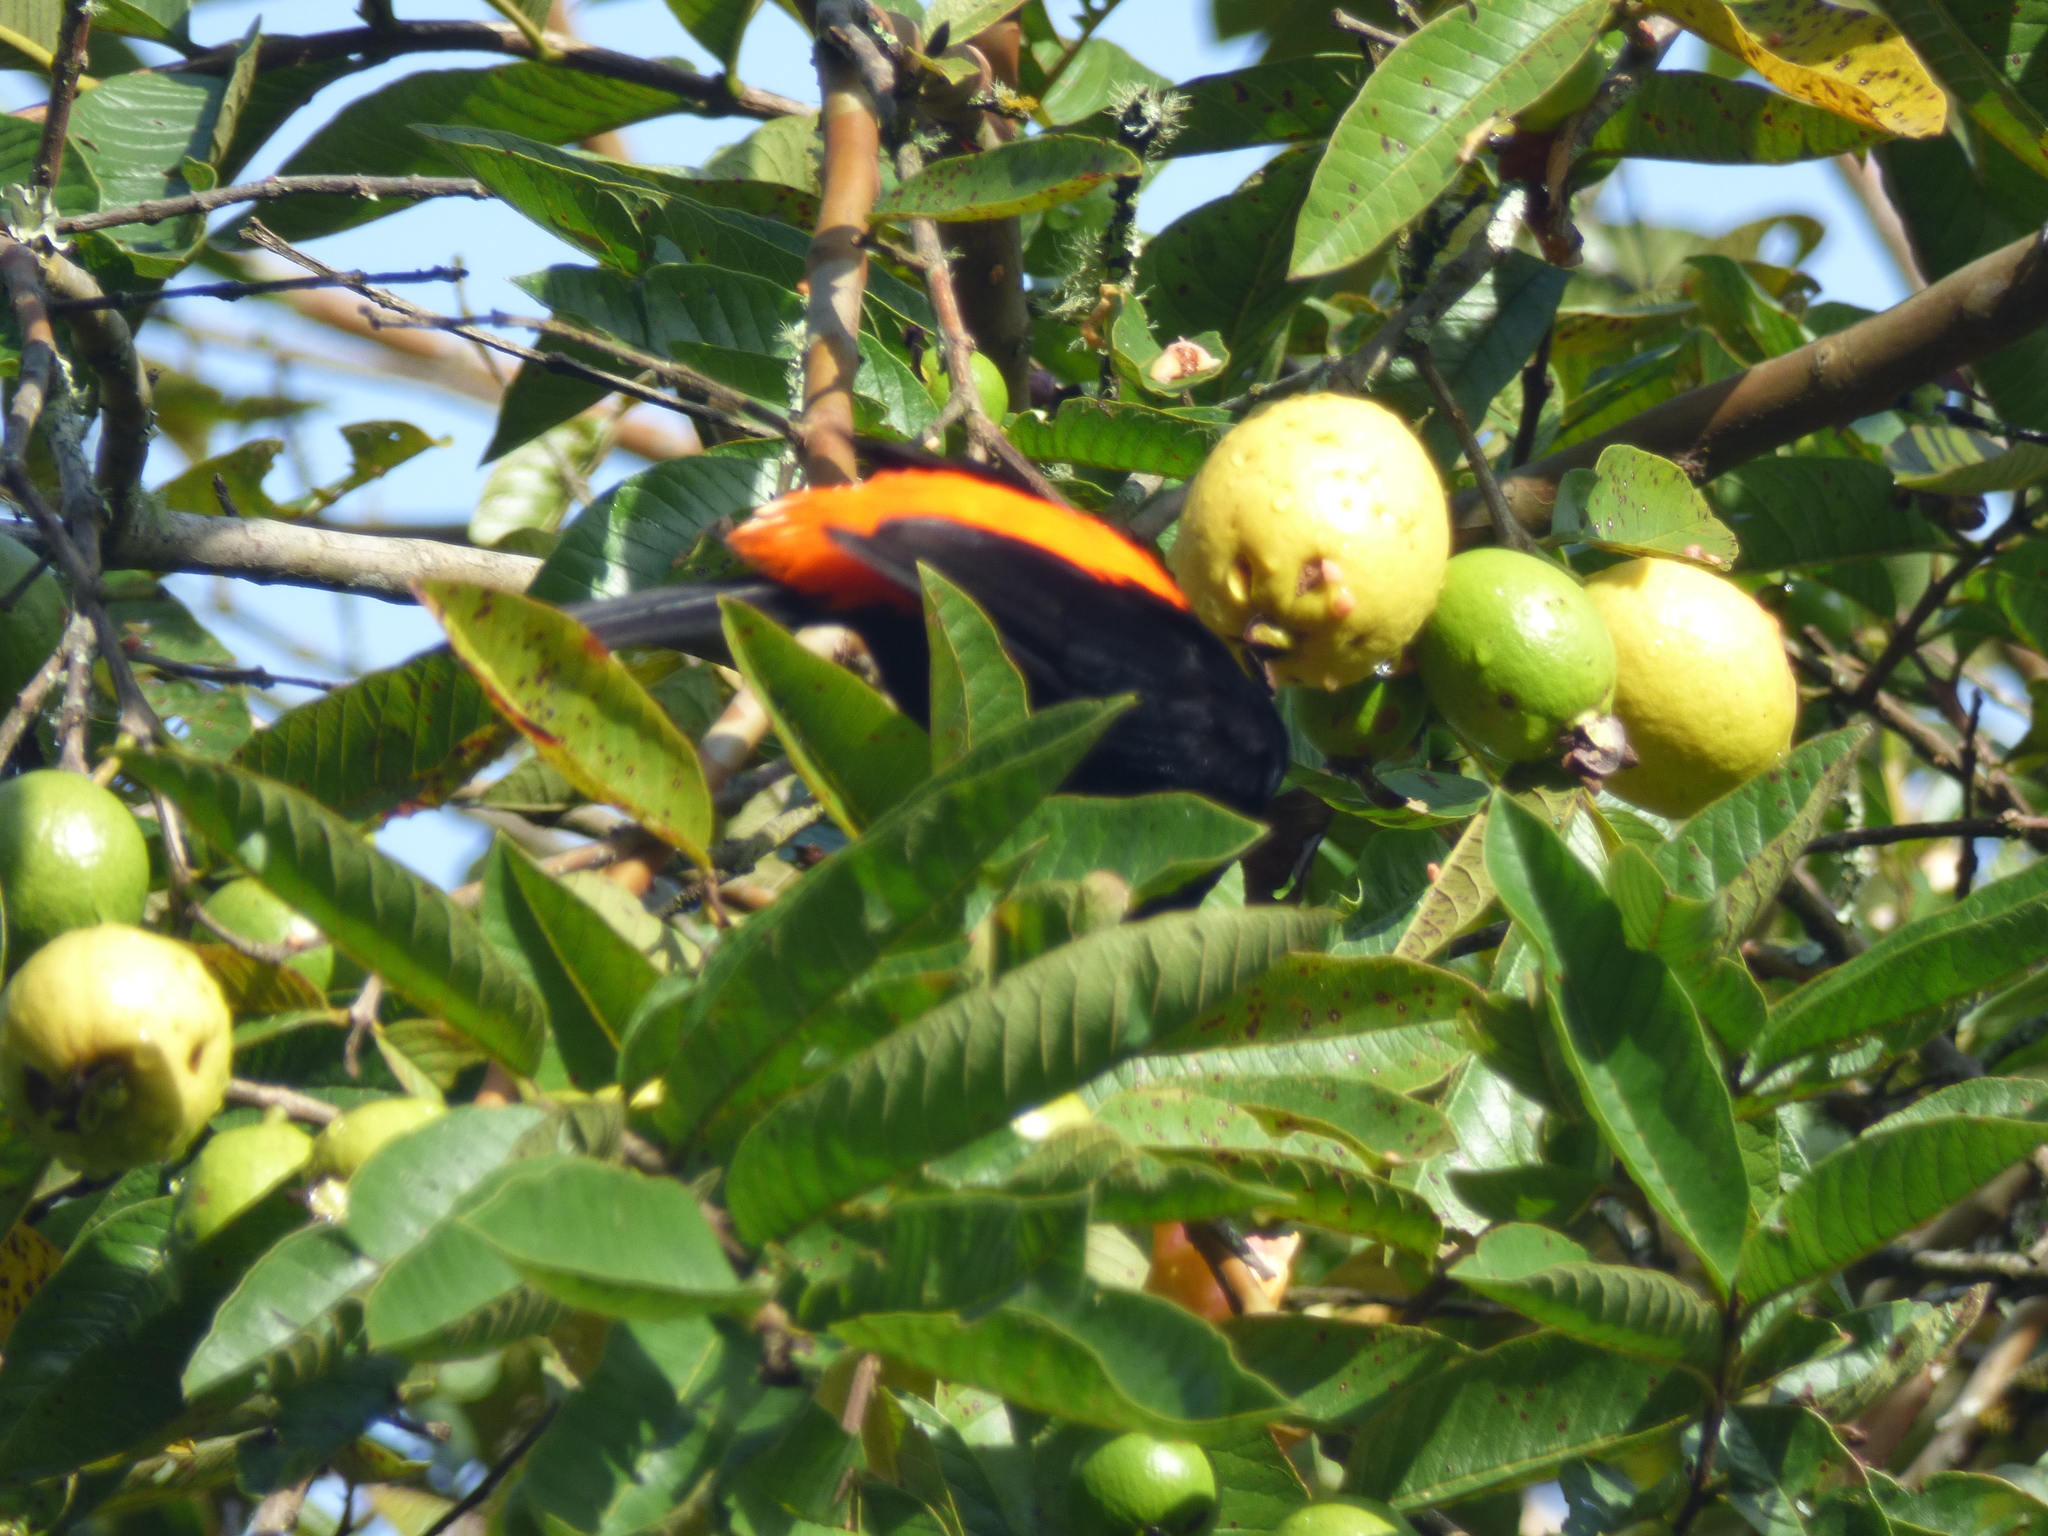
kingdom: Animalia
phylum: Chordata
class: Aves
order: Passeriformes
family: Thraupidae
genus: Ramphocelus
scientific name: Ramphocelus flammigerus
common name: Flame-rumped tanager
